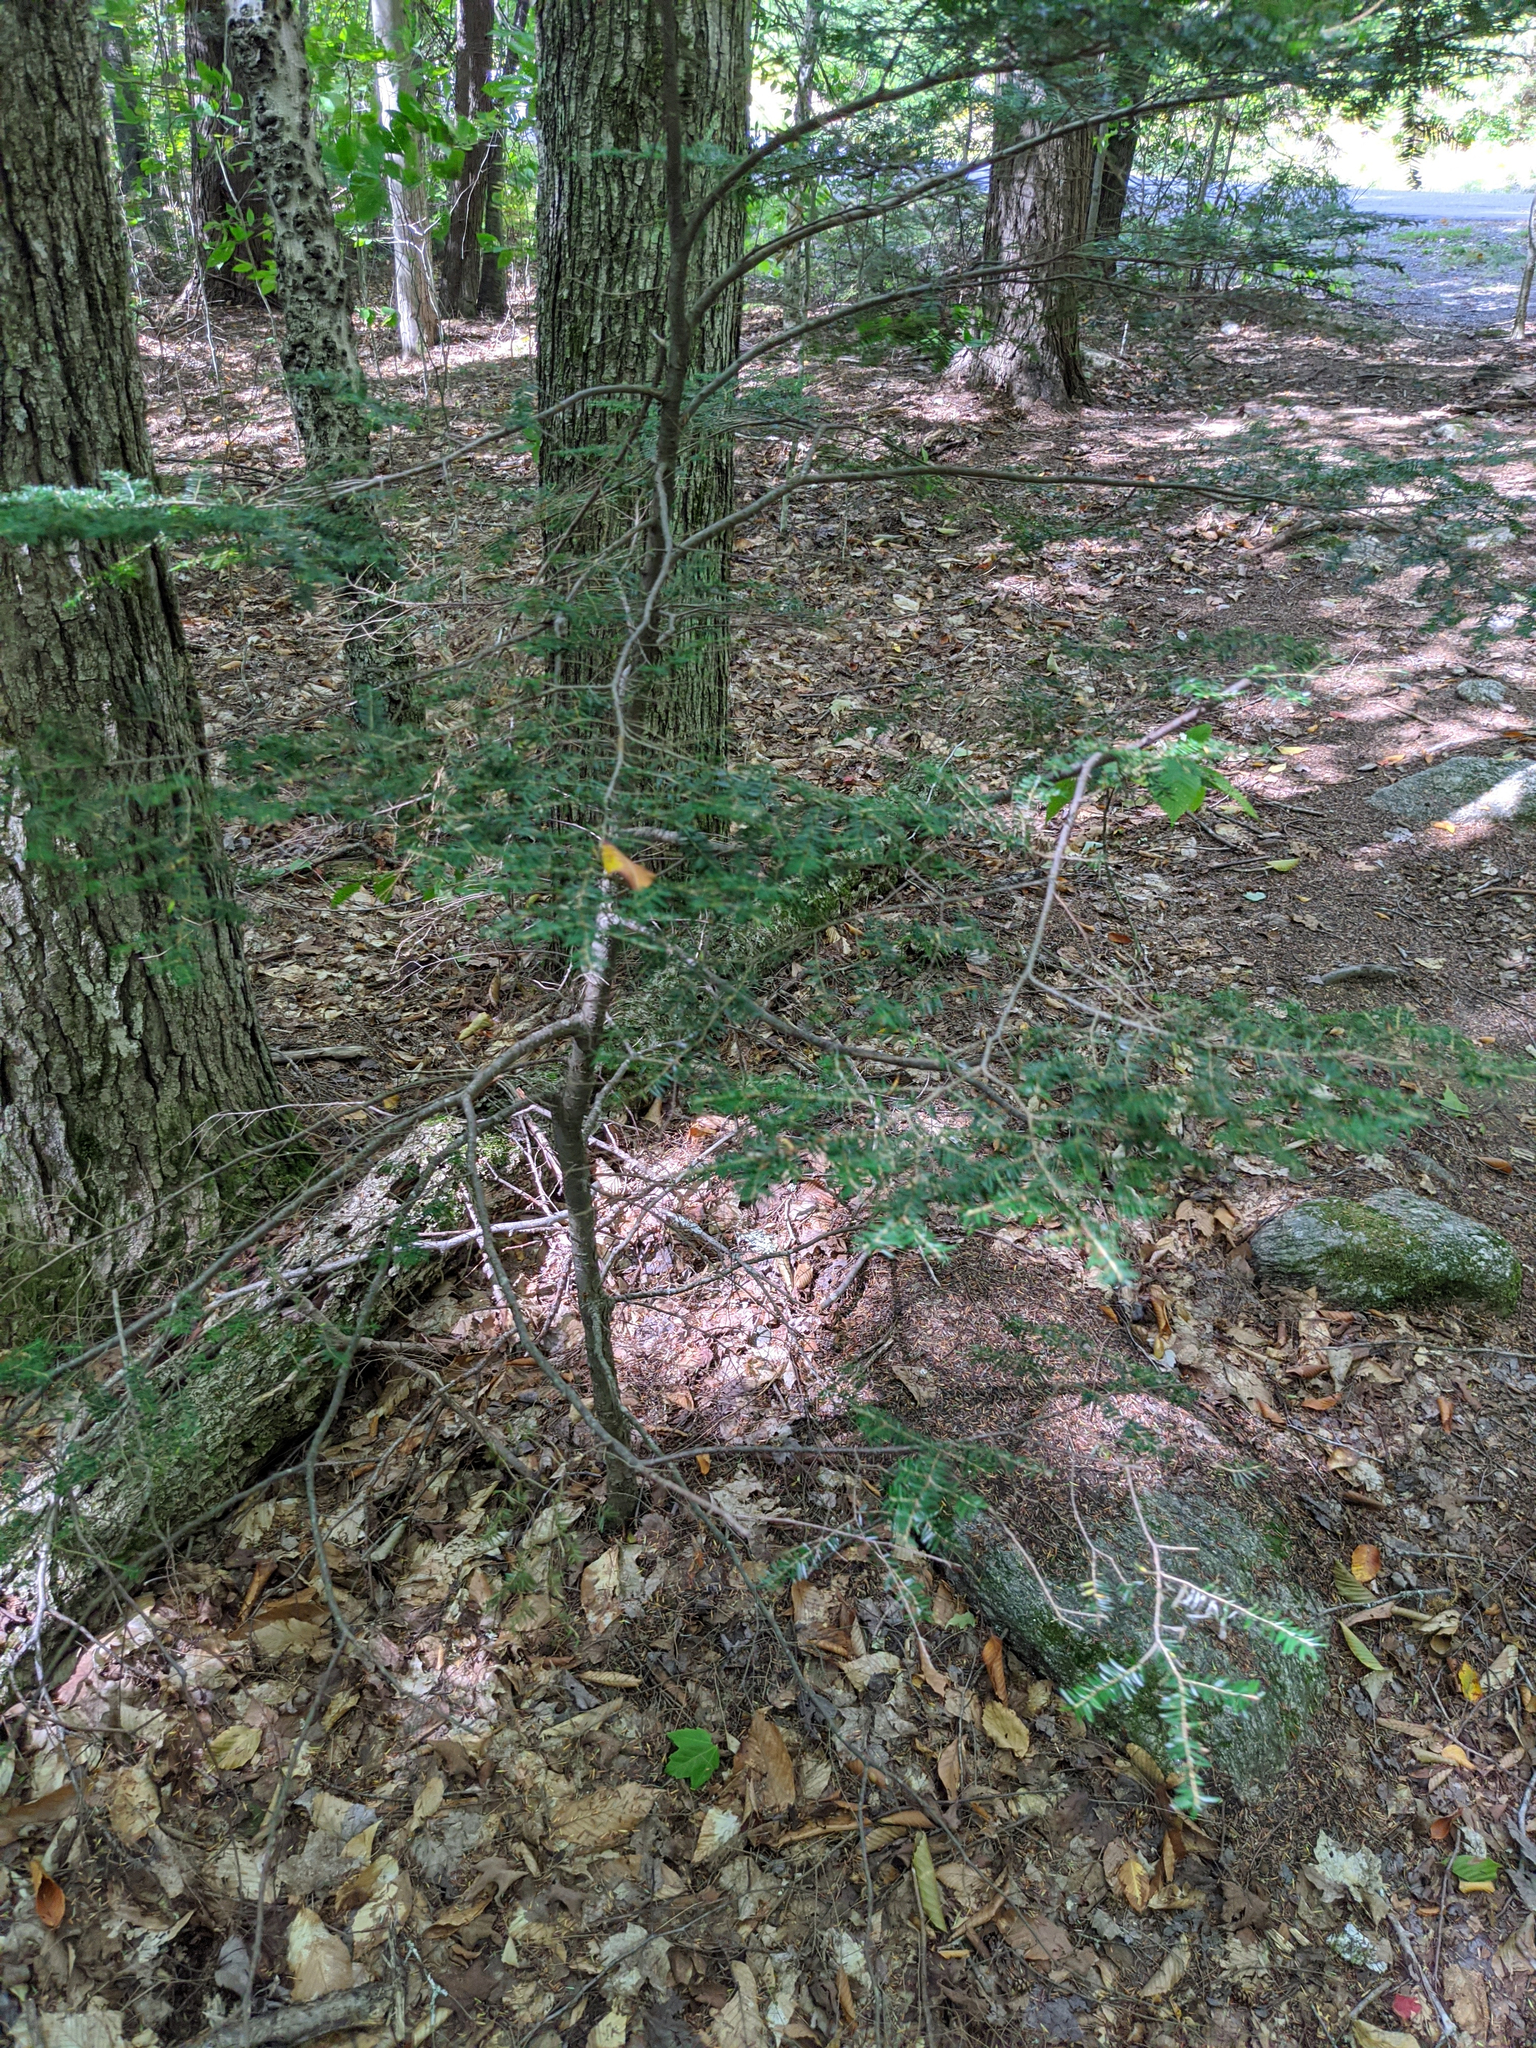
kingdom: Plantae
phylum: Tracheophyta
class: Pinopsida
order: Pinales
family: Pinaceae
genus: Tsuga
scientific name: Tsuga canadensis
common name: Eastern hemlock
